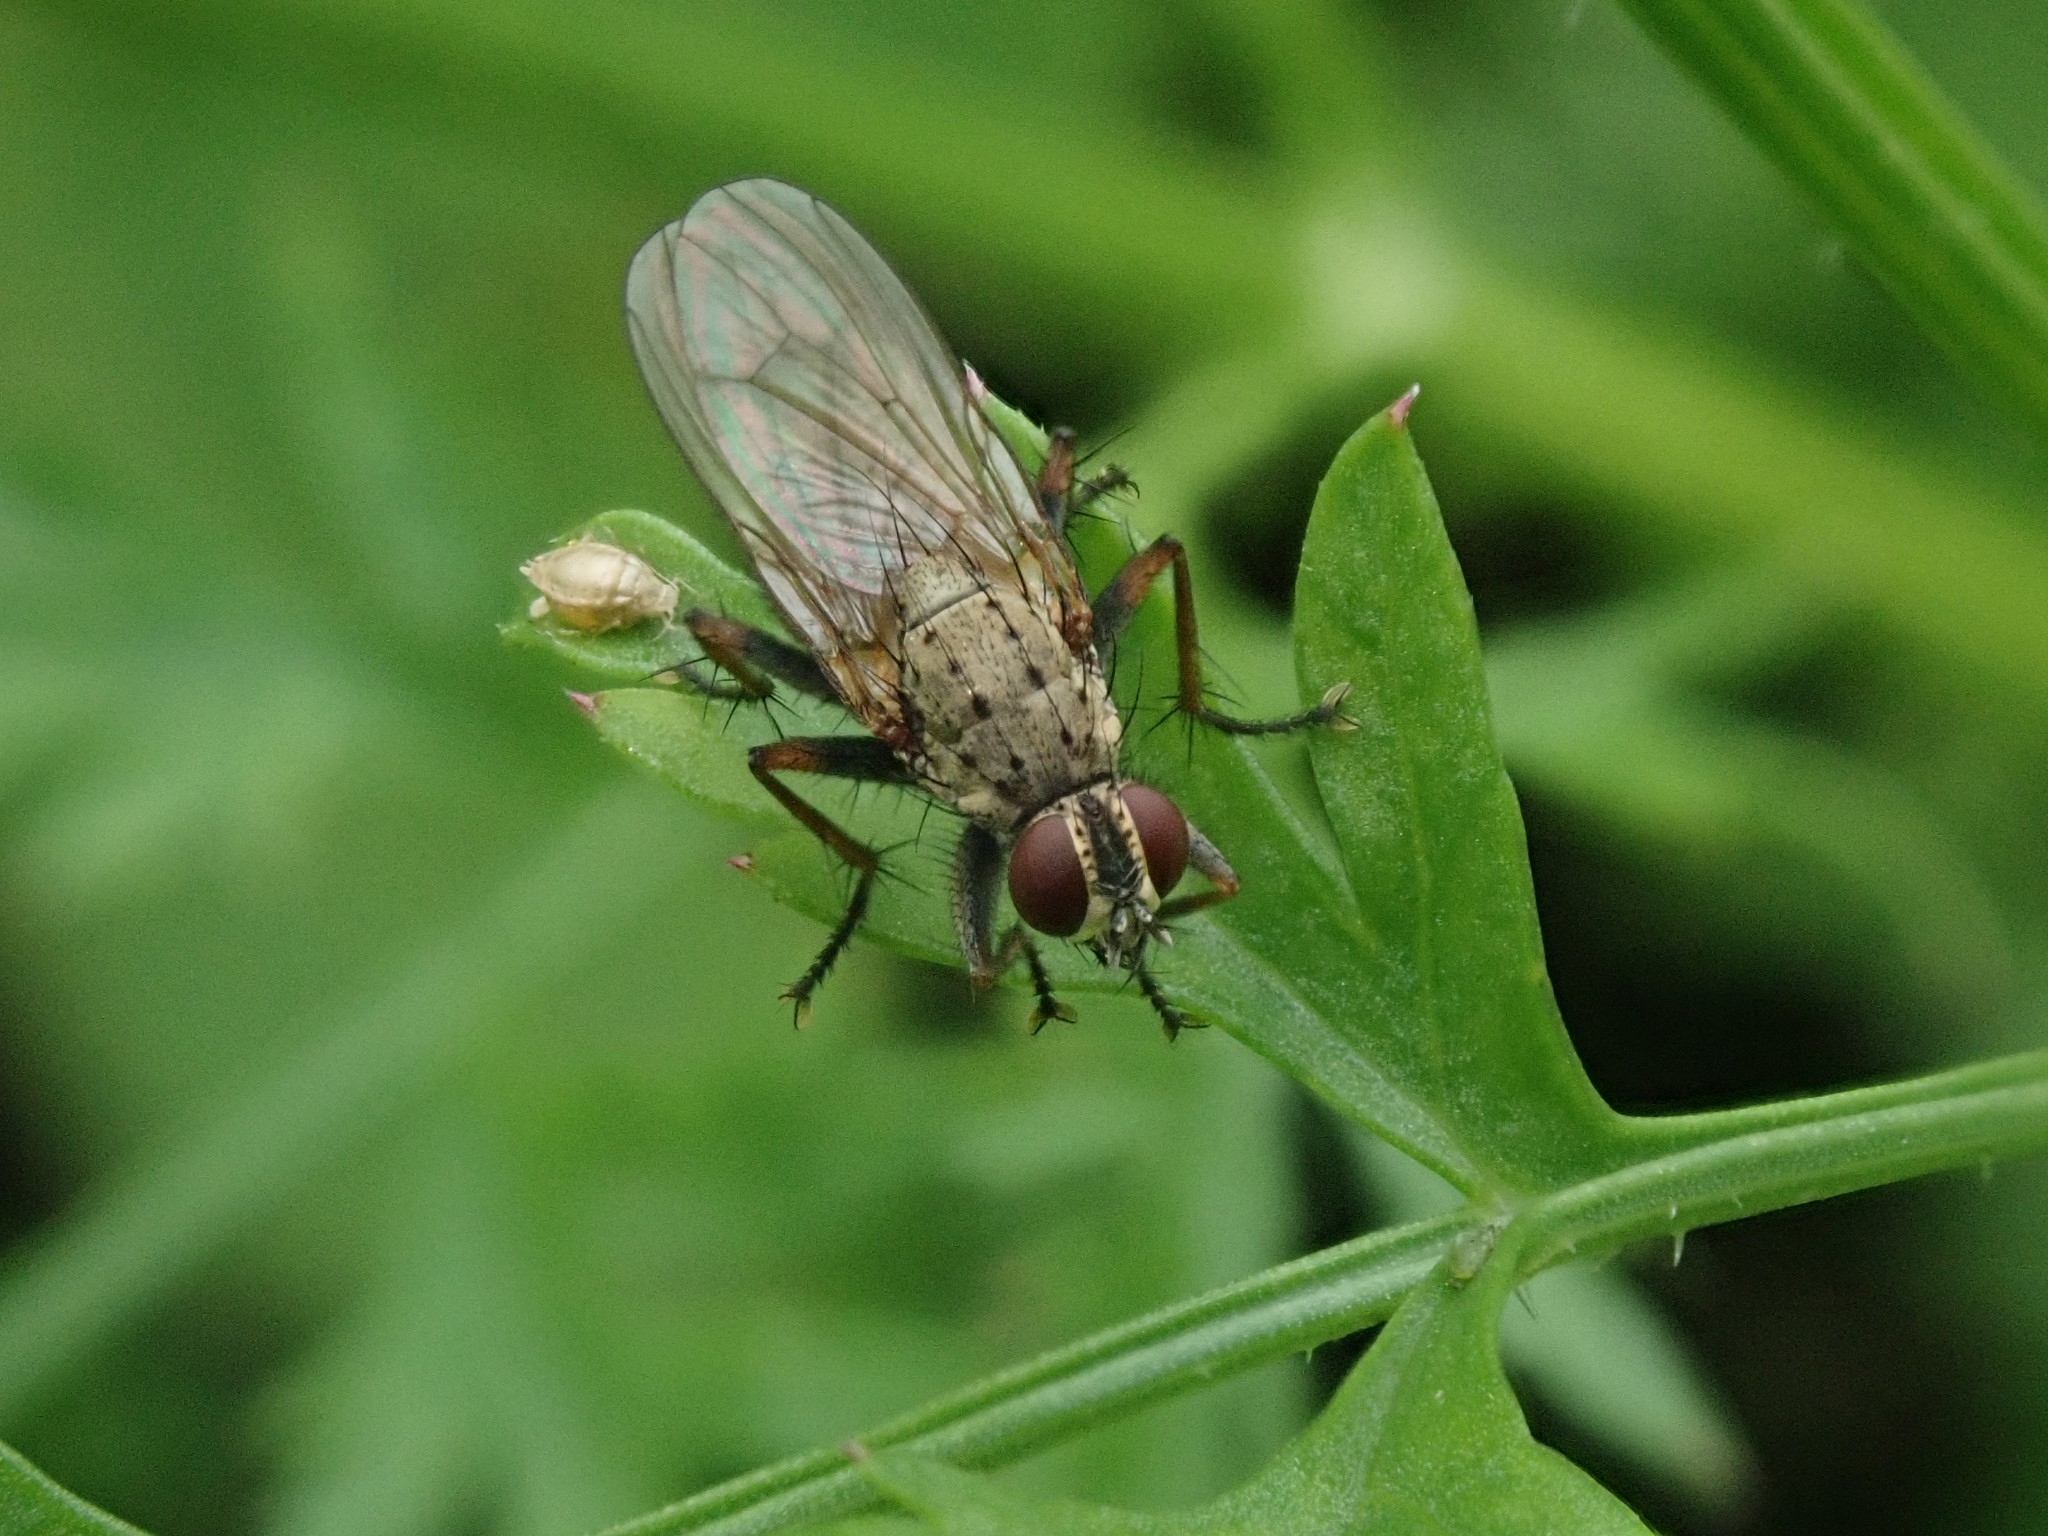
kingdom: Animalia
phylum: Arthropoda
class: Insecta
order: Diptera
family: Muscidae
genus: Coenosia
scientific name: Coenosia tigrina
